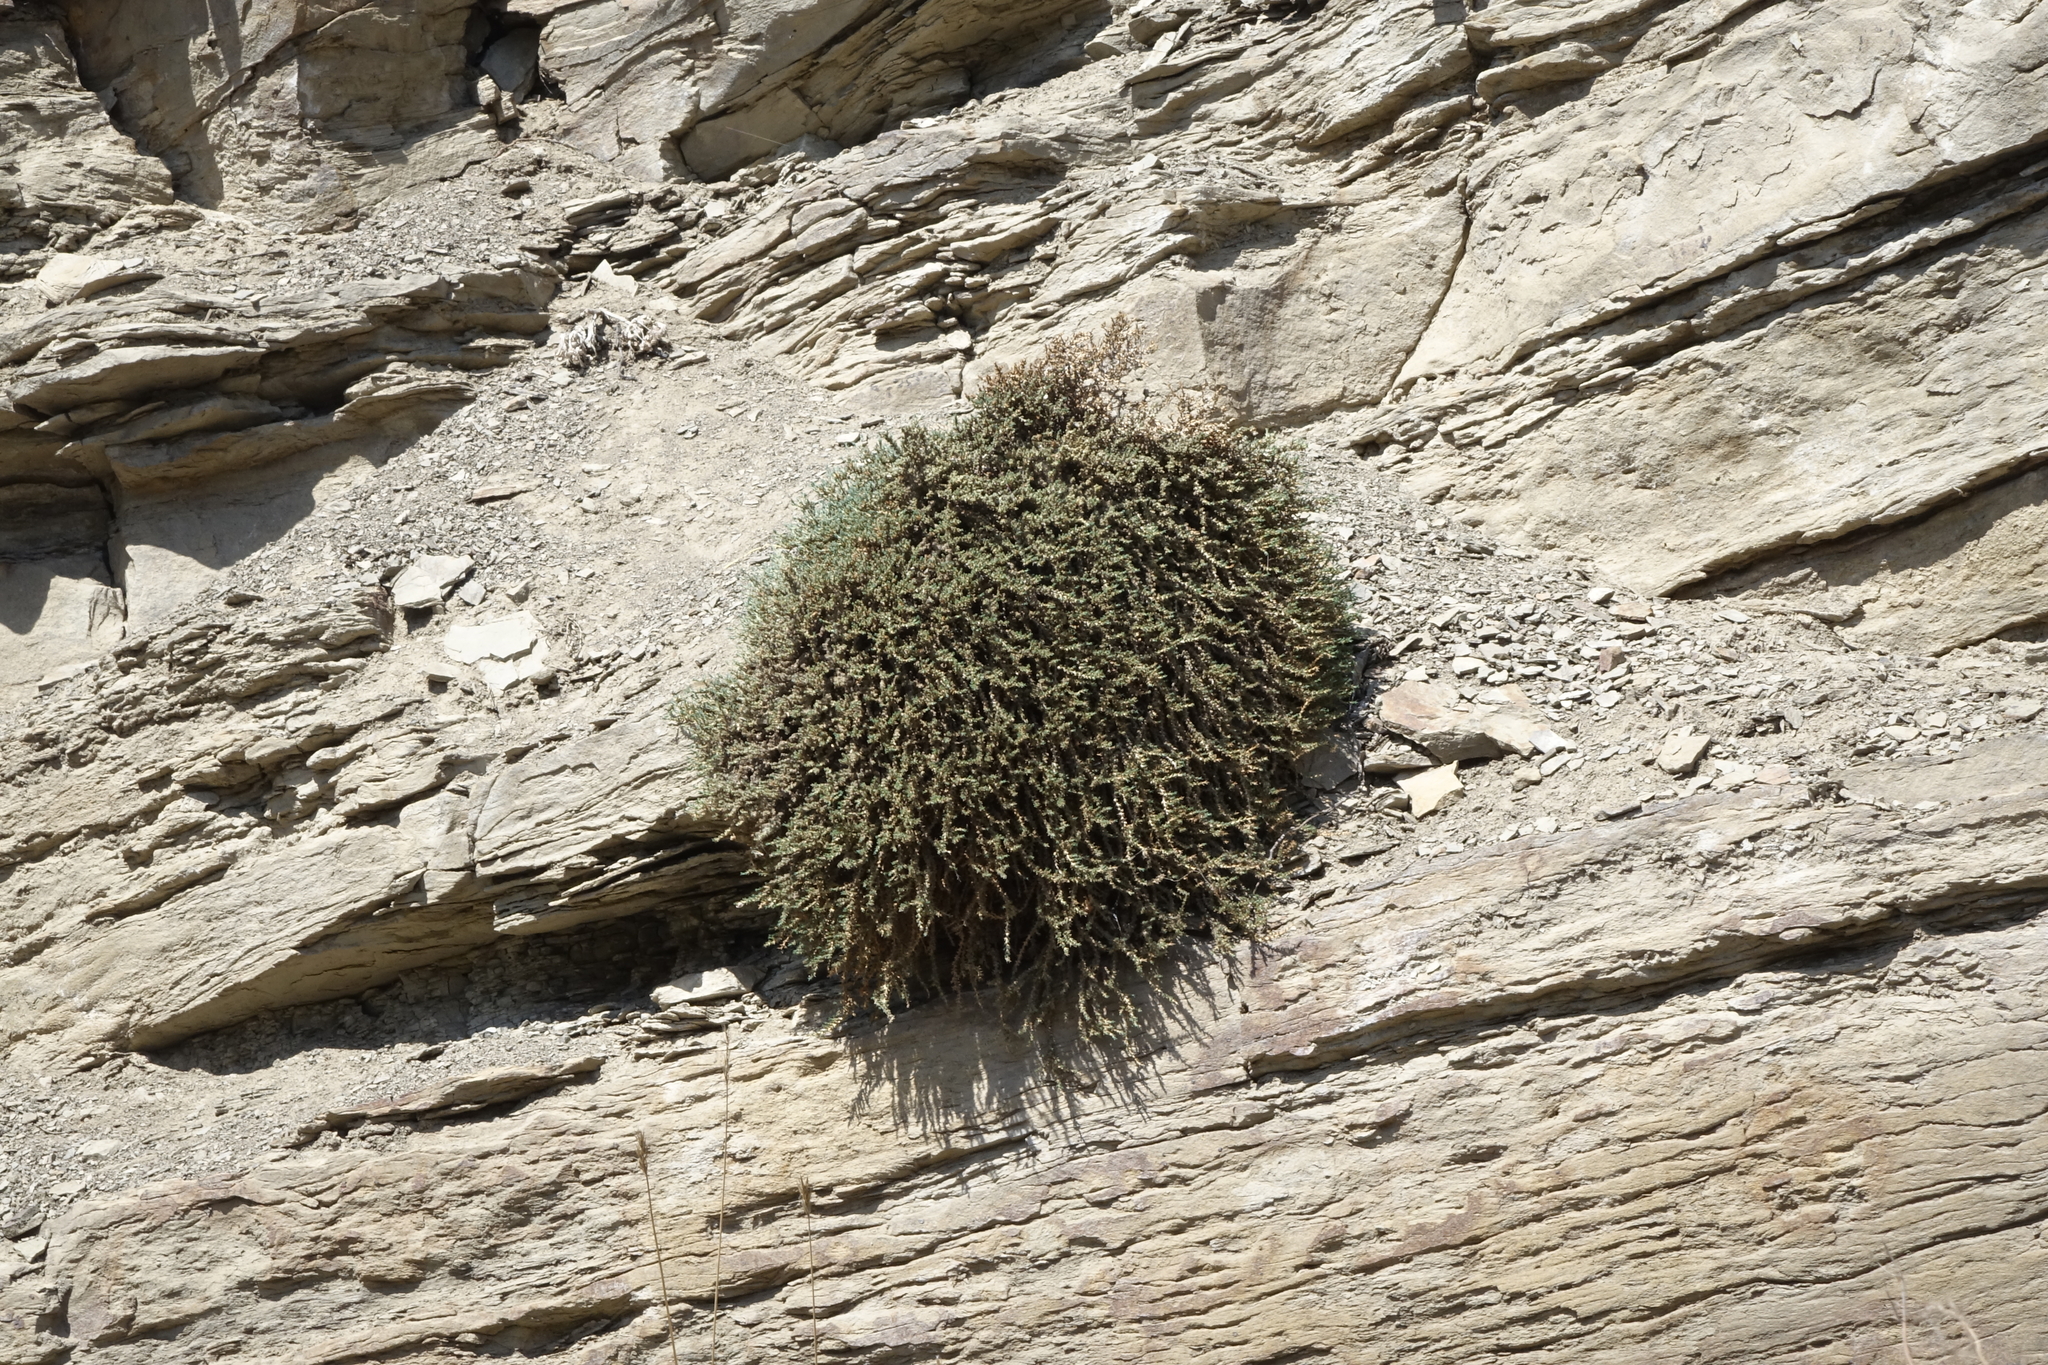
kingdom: Plantae
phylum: Tracheophyta
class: Magnoliopsida
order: Caryophyllales
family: Amaranthaceae
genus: Nanophyton
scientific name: Nanophyton grubovii
